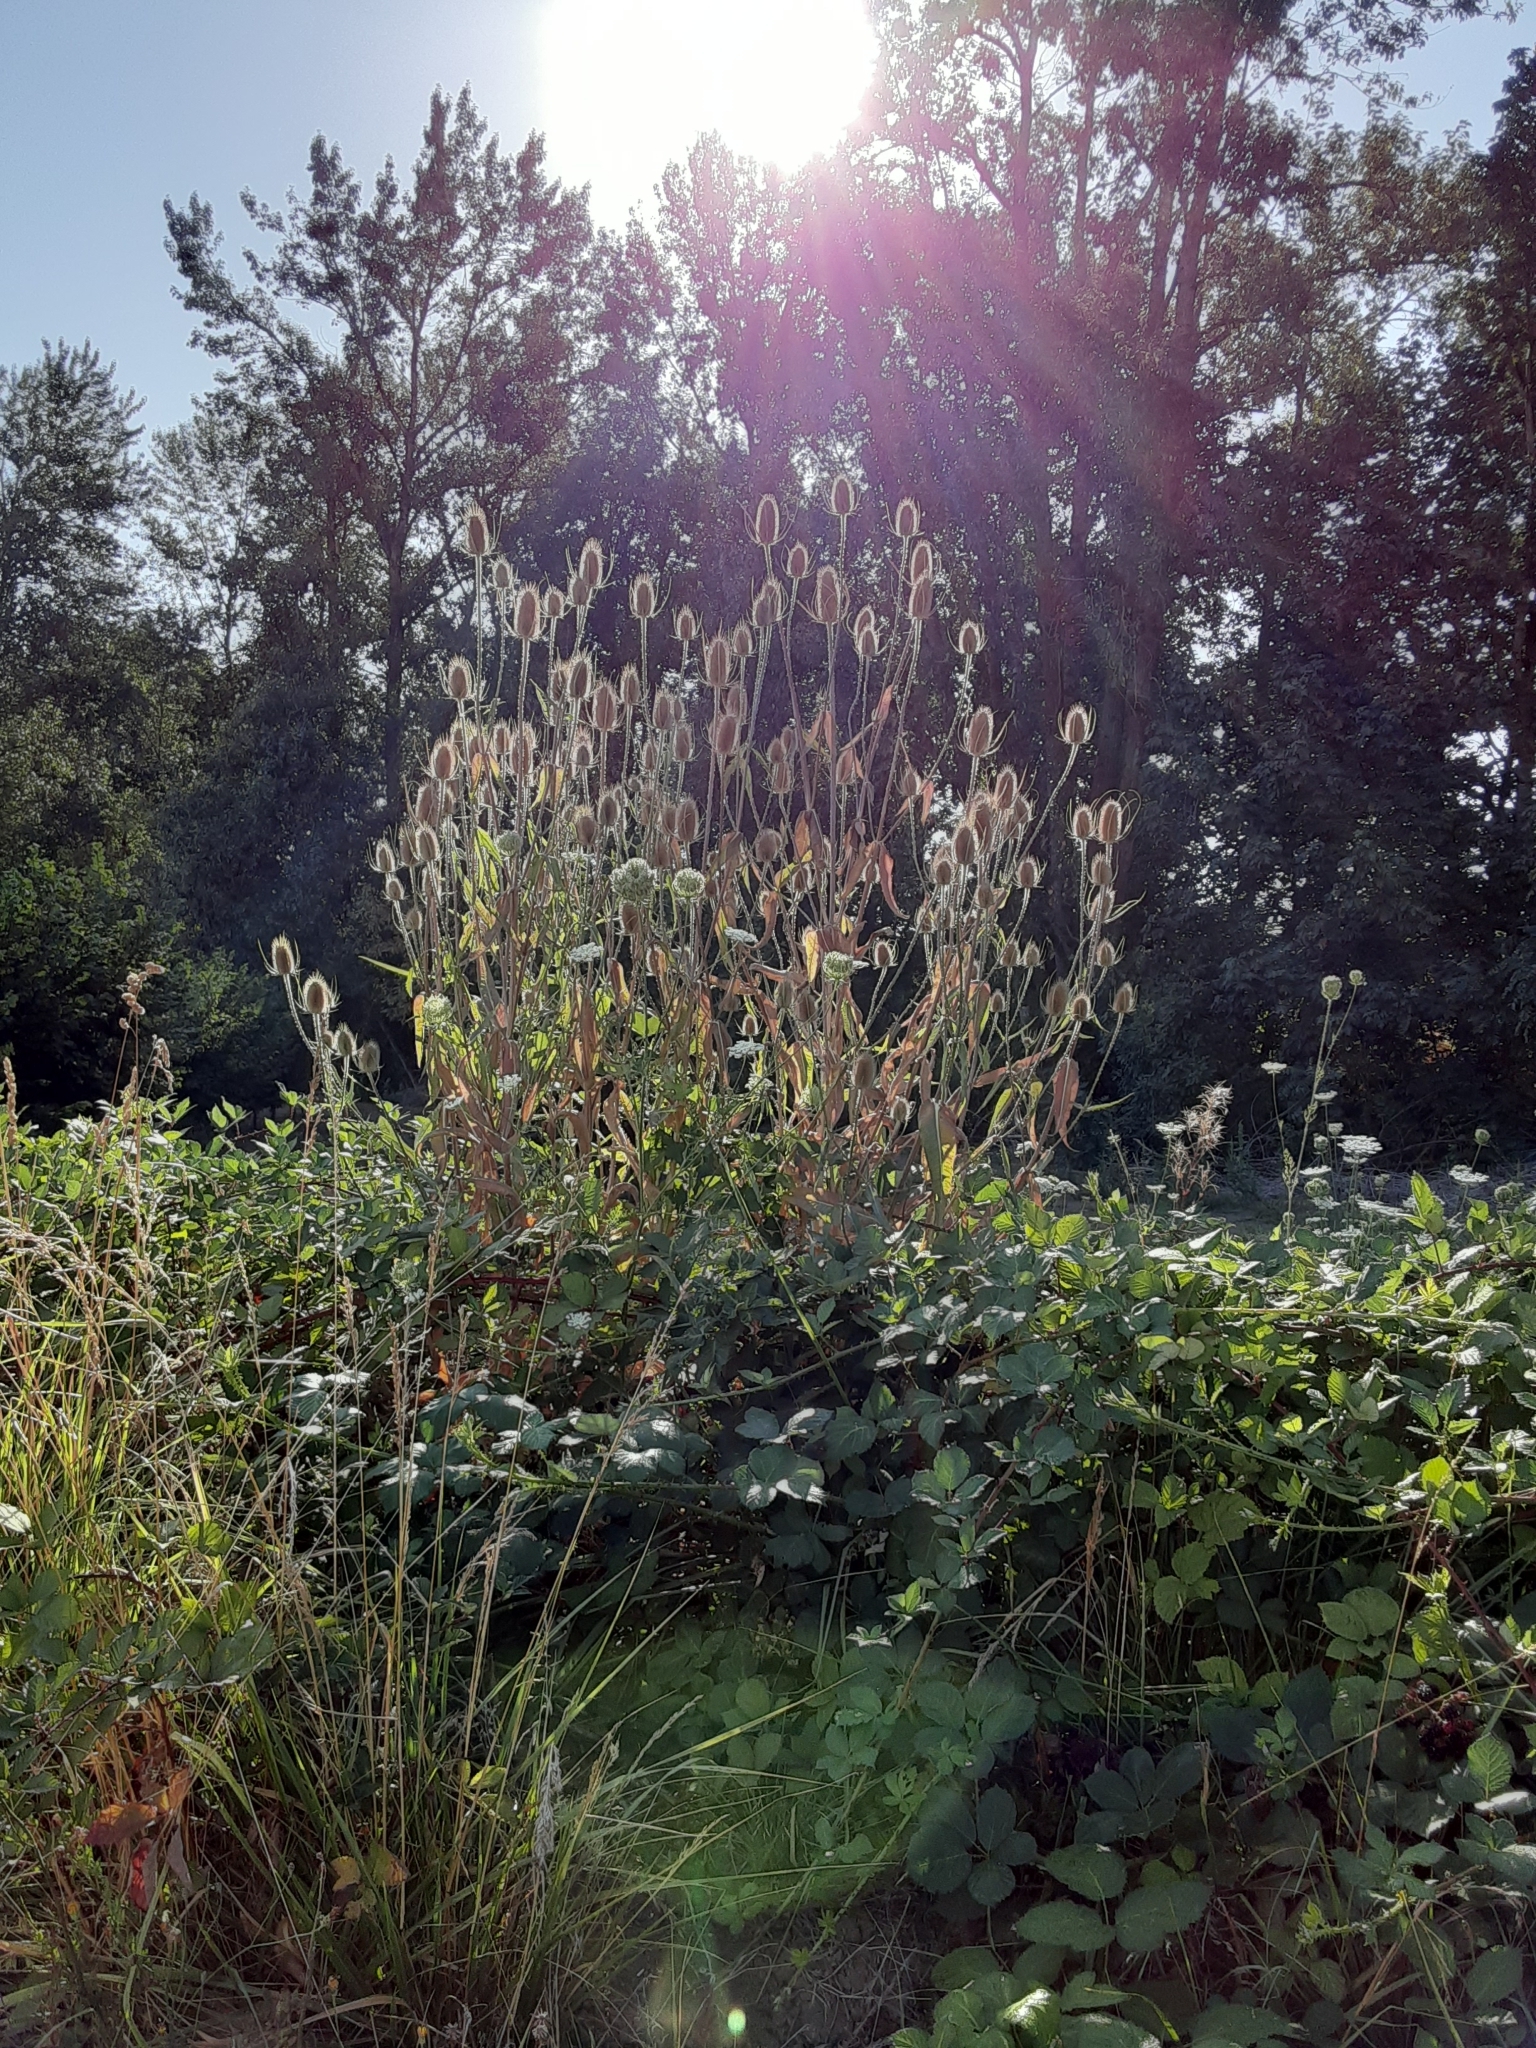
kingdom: Plantae
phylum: Tracheophyta
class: Magnoliopsida
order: Dipsacales
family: Caprifoliaceae
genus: Dipsacus
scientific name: Dipsacus fullonum
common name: Teasel
